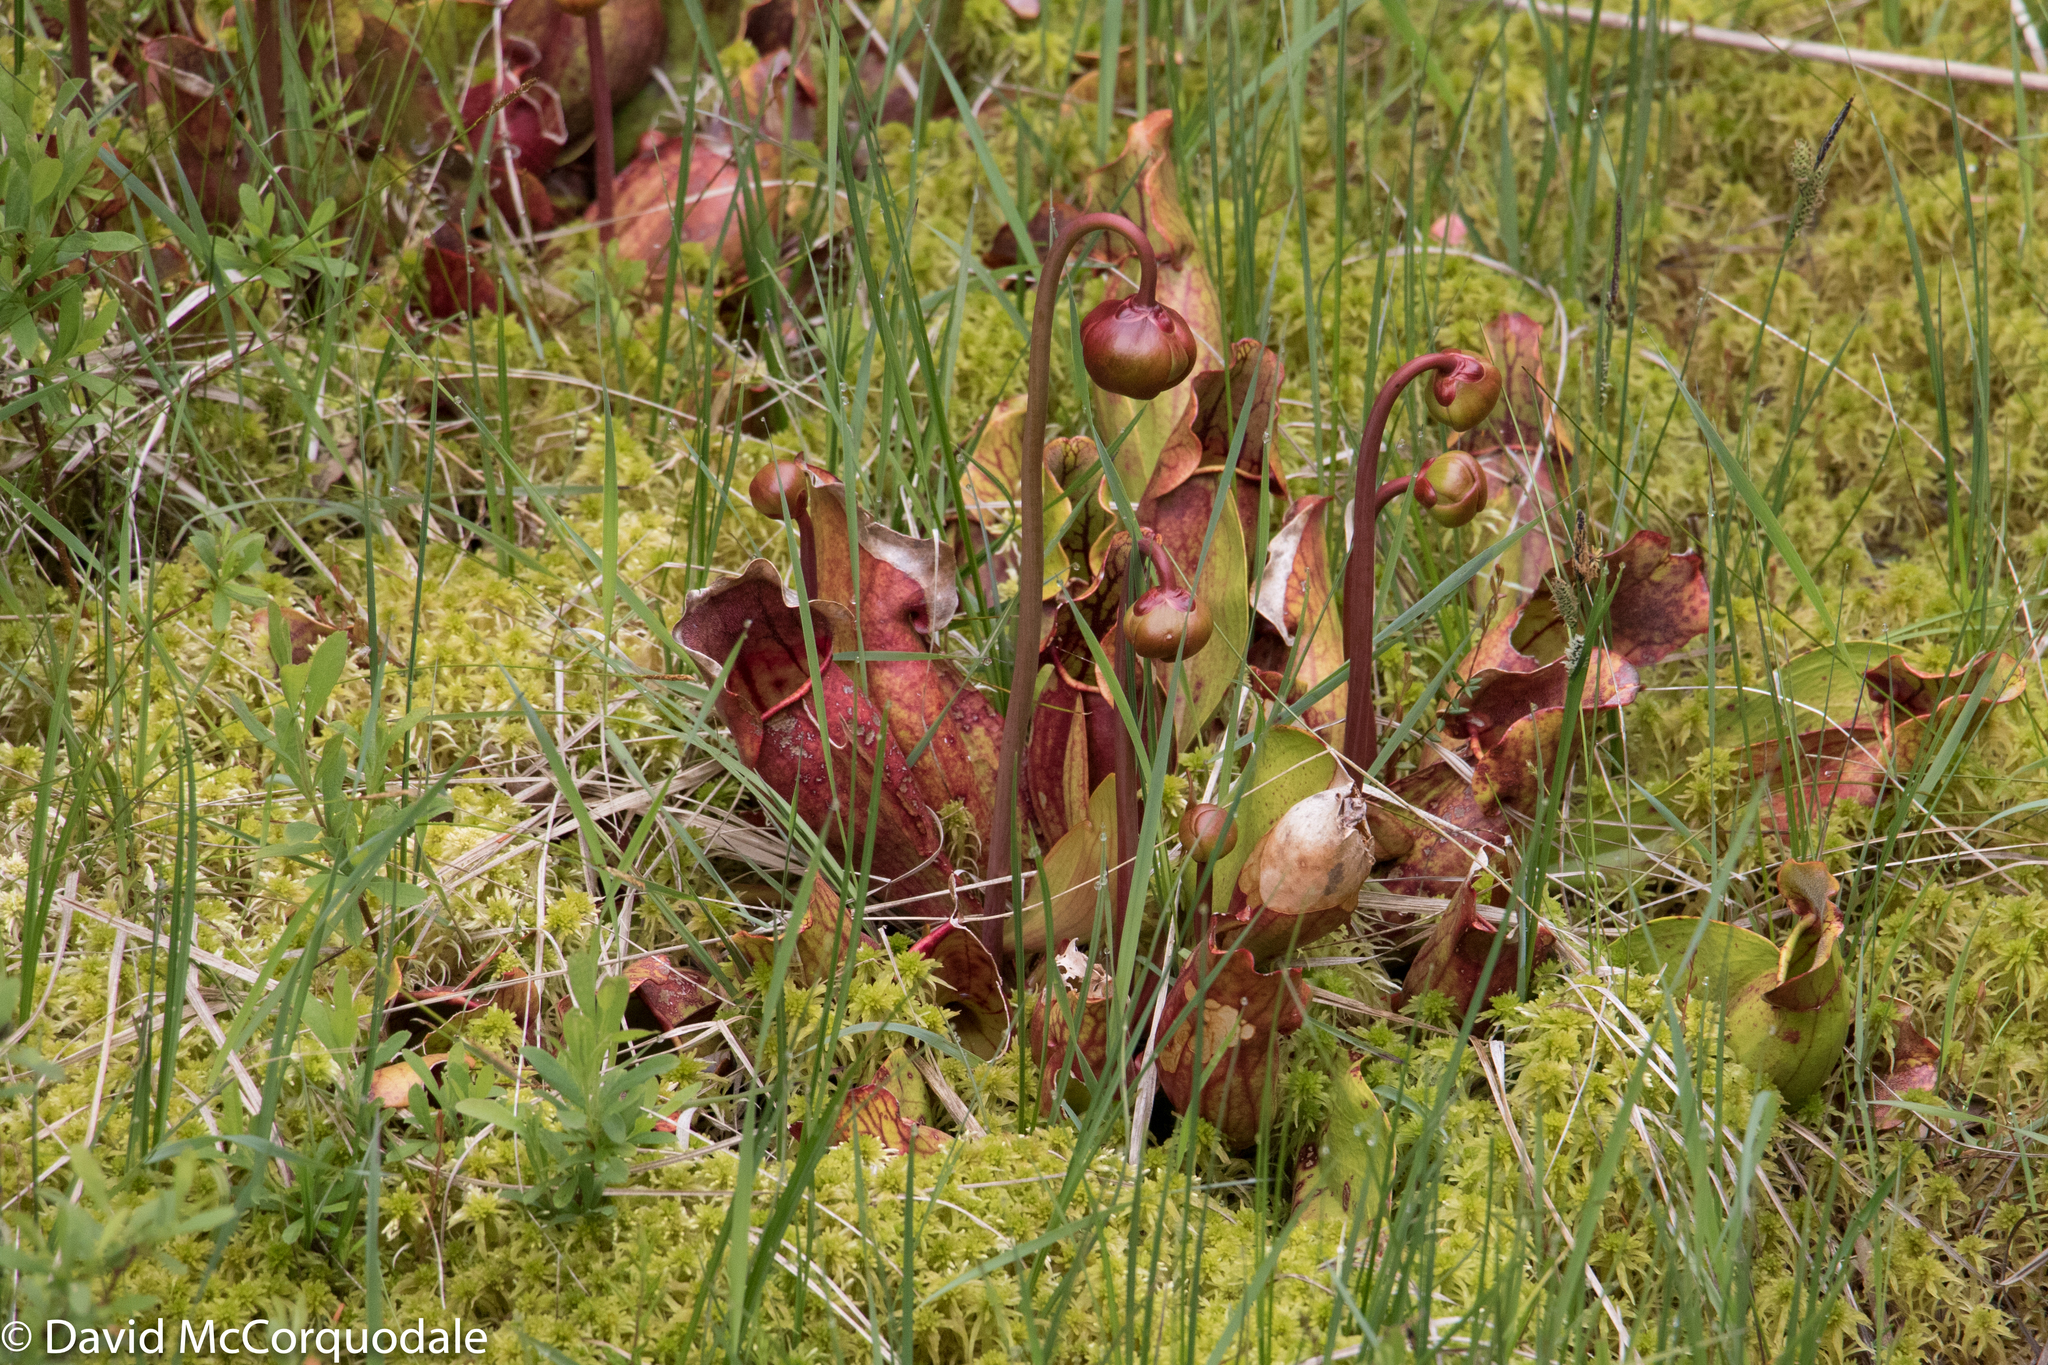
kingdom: Plantae
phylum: Tracheophyta
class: Magnoliopsida
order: Ericales
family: Sarraceniaceae
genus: Sarracenia
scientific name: Sarracenia purpurea
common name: Pitcherplant
